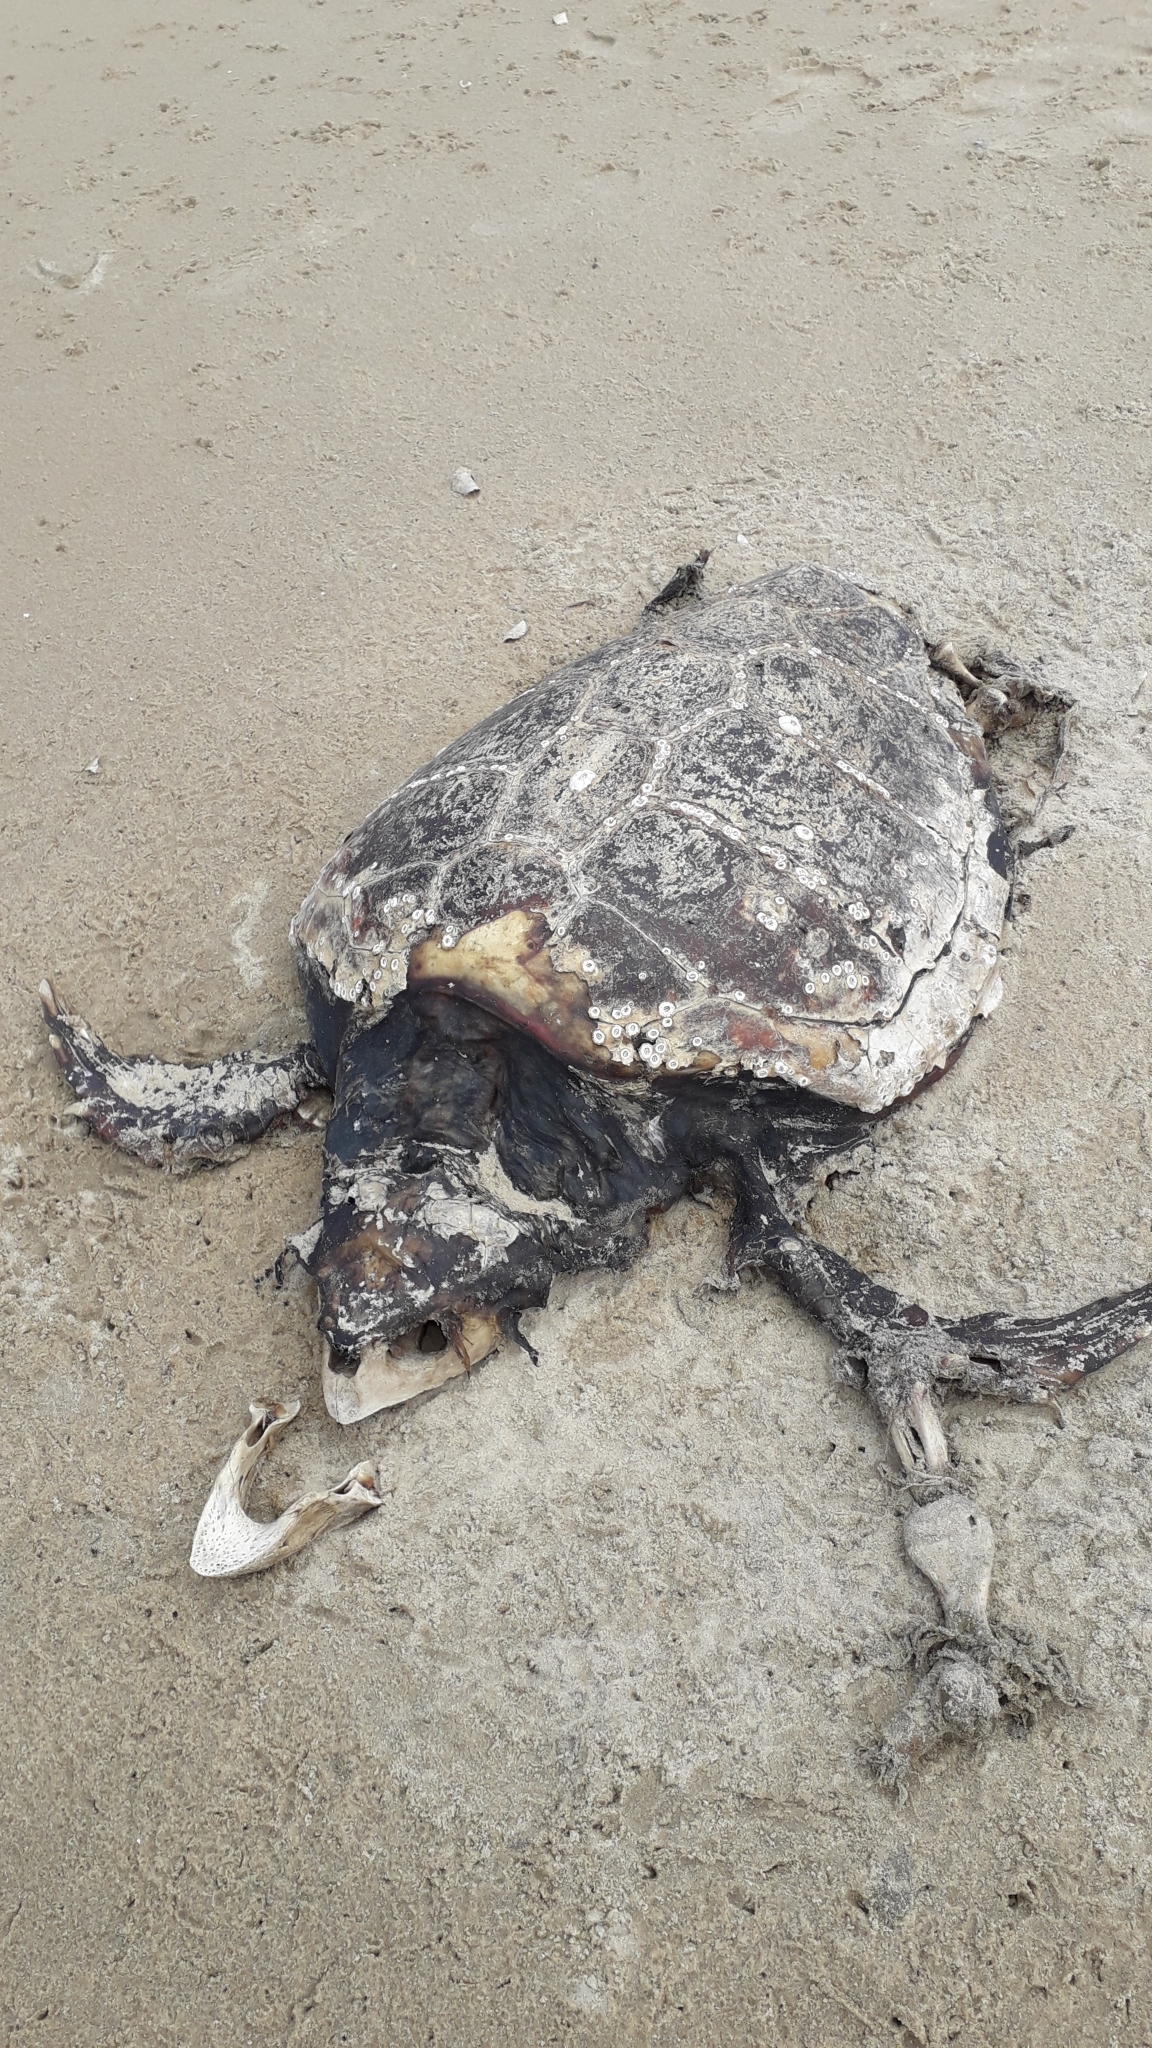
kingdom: Animalia
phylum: Chordata
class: Testudines
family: Cheloniidae
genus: Caretta
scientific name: Caretta caretta
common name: Loggerhead sea turtle
